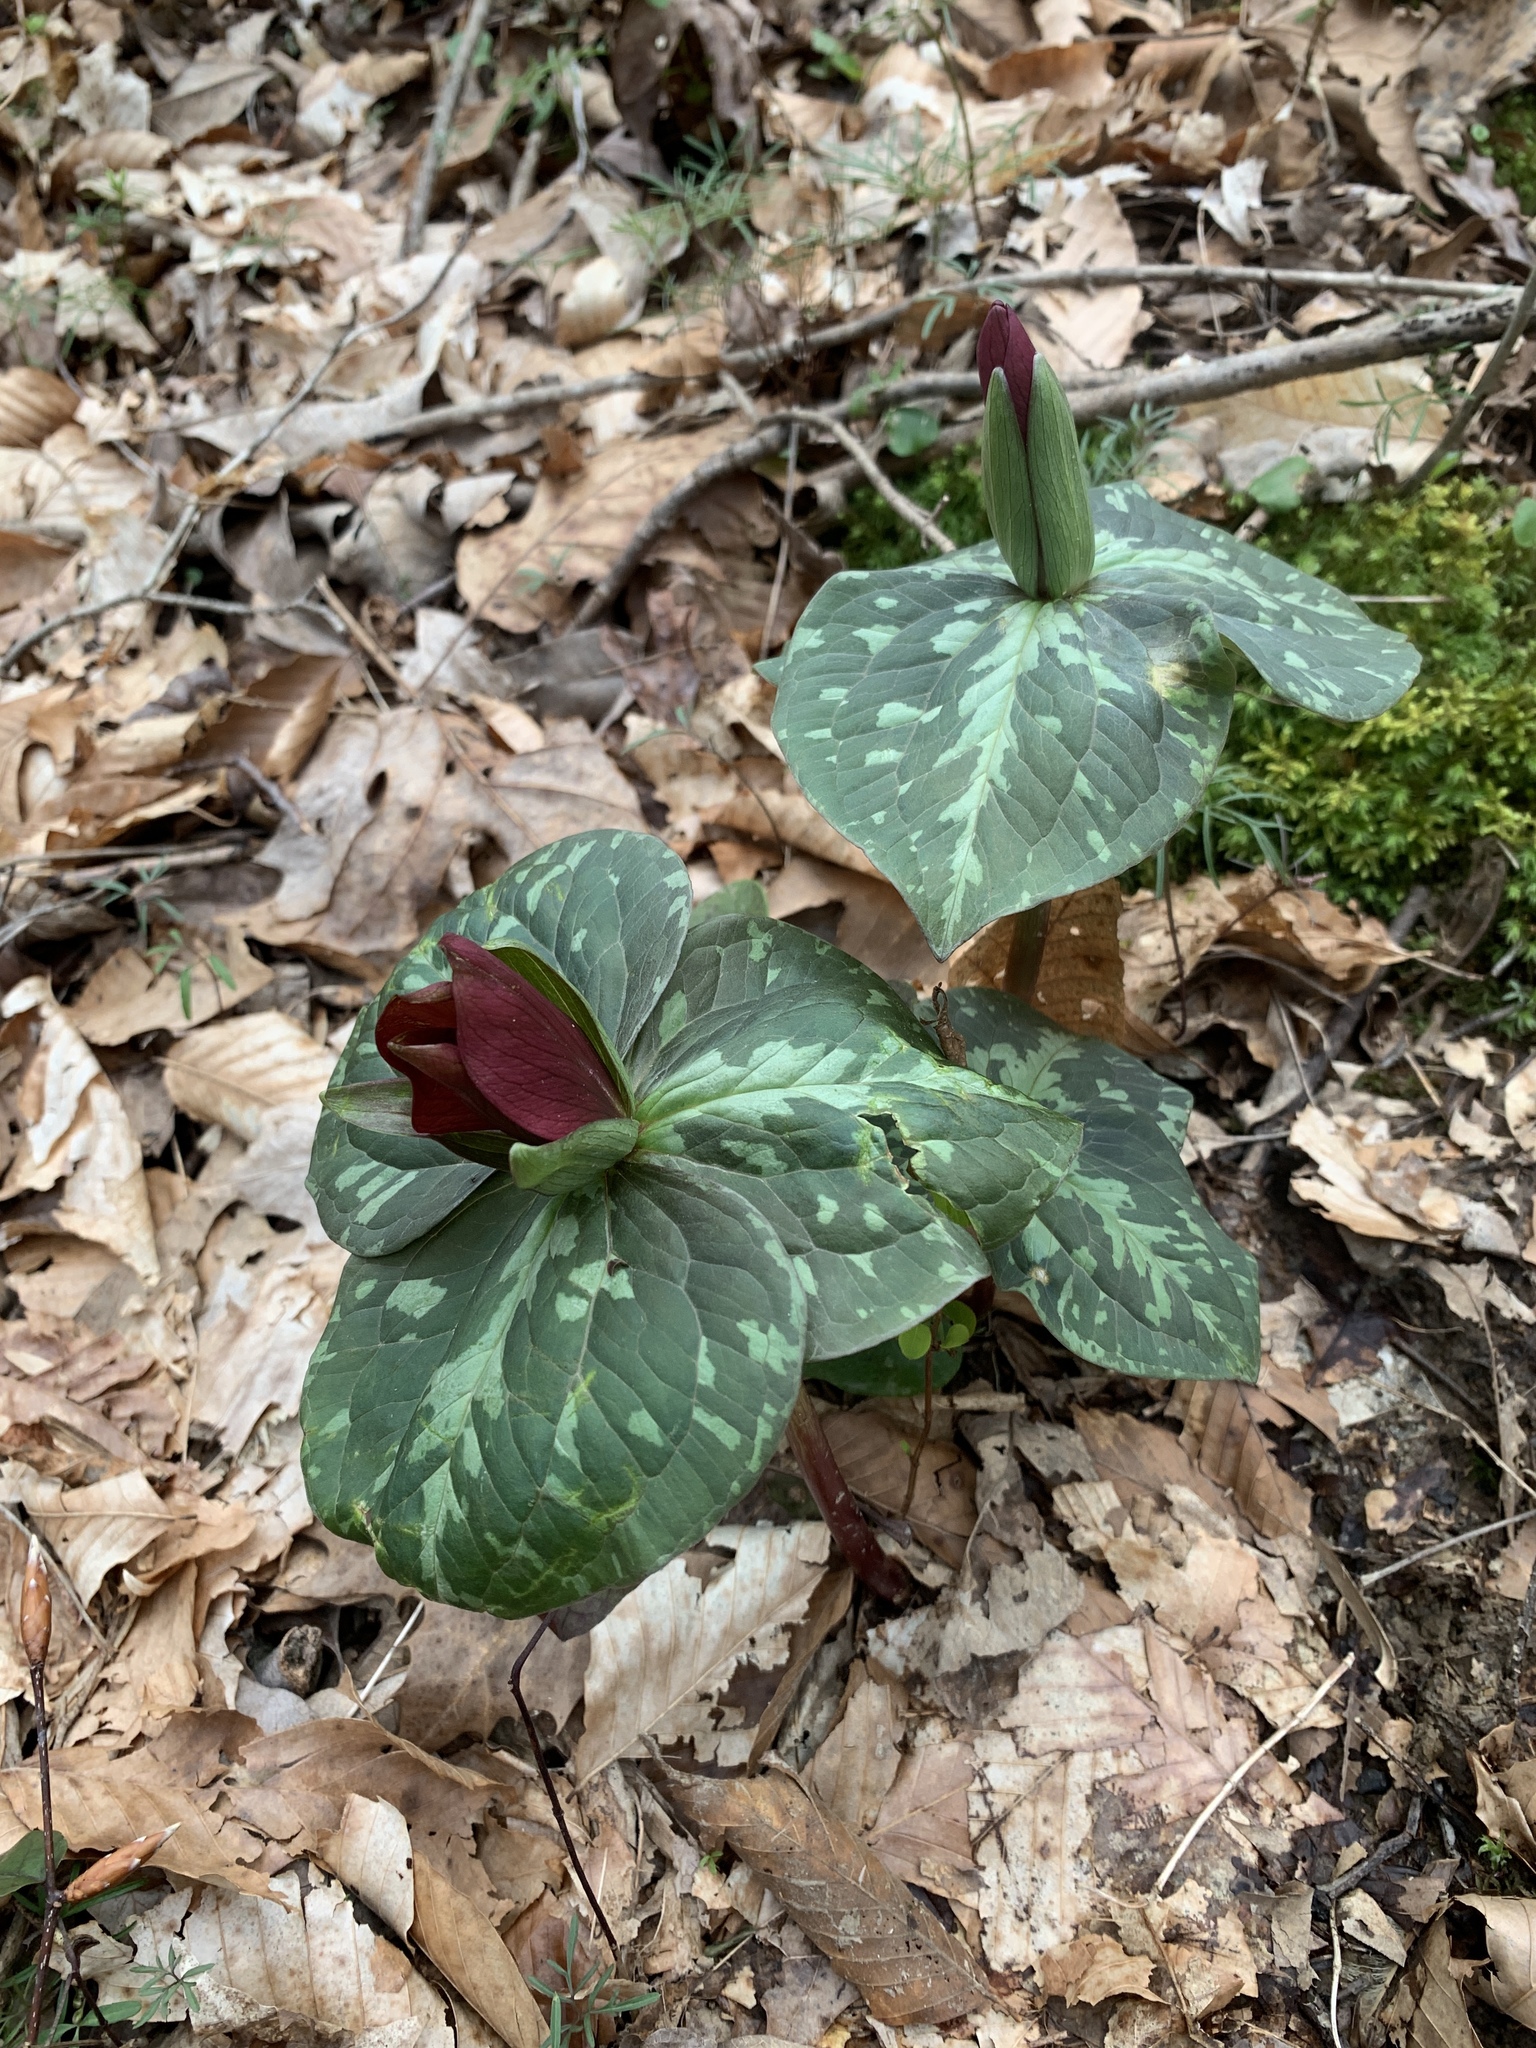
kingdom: Plantae
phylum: Tracheophyta
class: Liliopsida
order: Liliales
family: Melanthiaceae
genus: Trillium
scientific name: Trillium cuneatum
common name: Cuneate trillium
